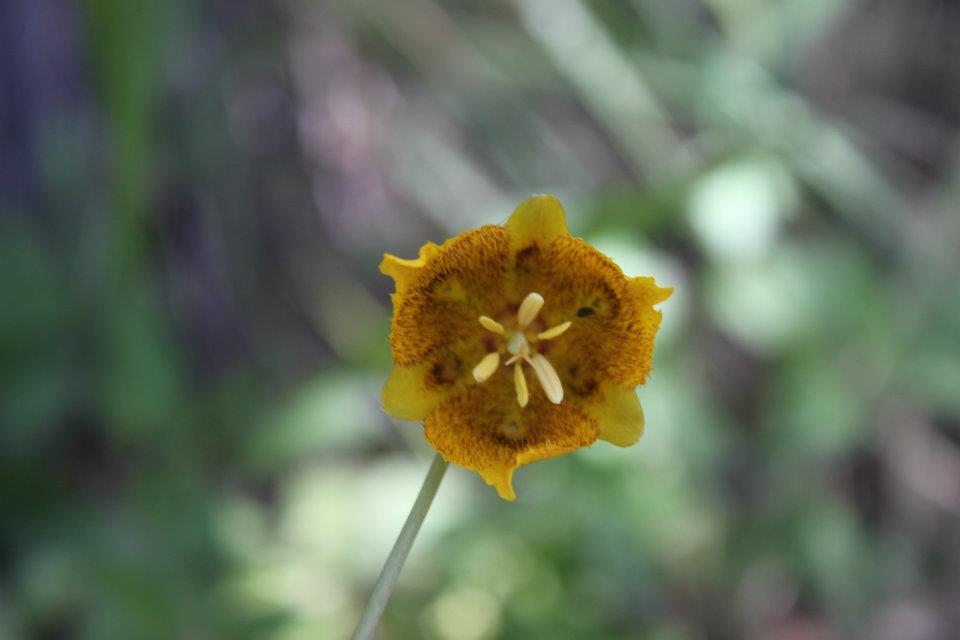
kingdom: Plantae
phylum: Tracheophyta
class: Liliopsida
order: Liliales
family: Liliaceae
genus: Calochortus
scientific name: Calochortus barbatus
